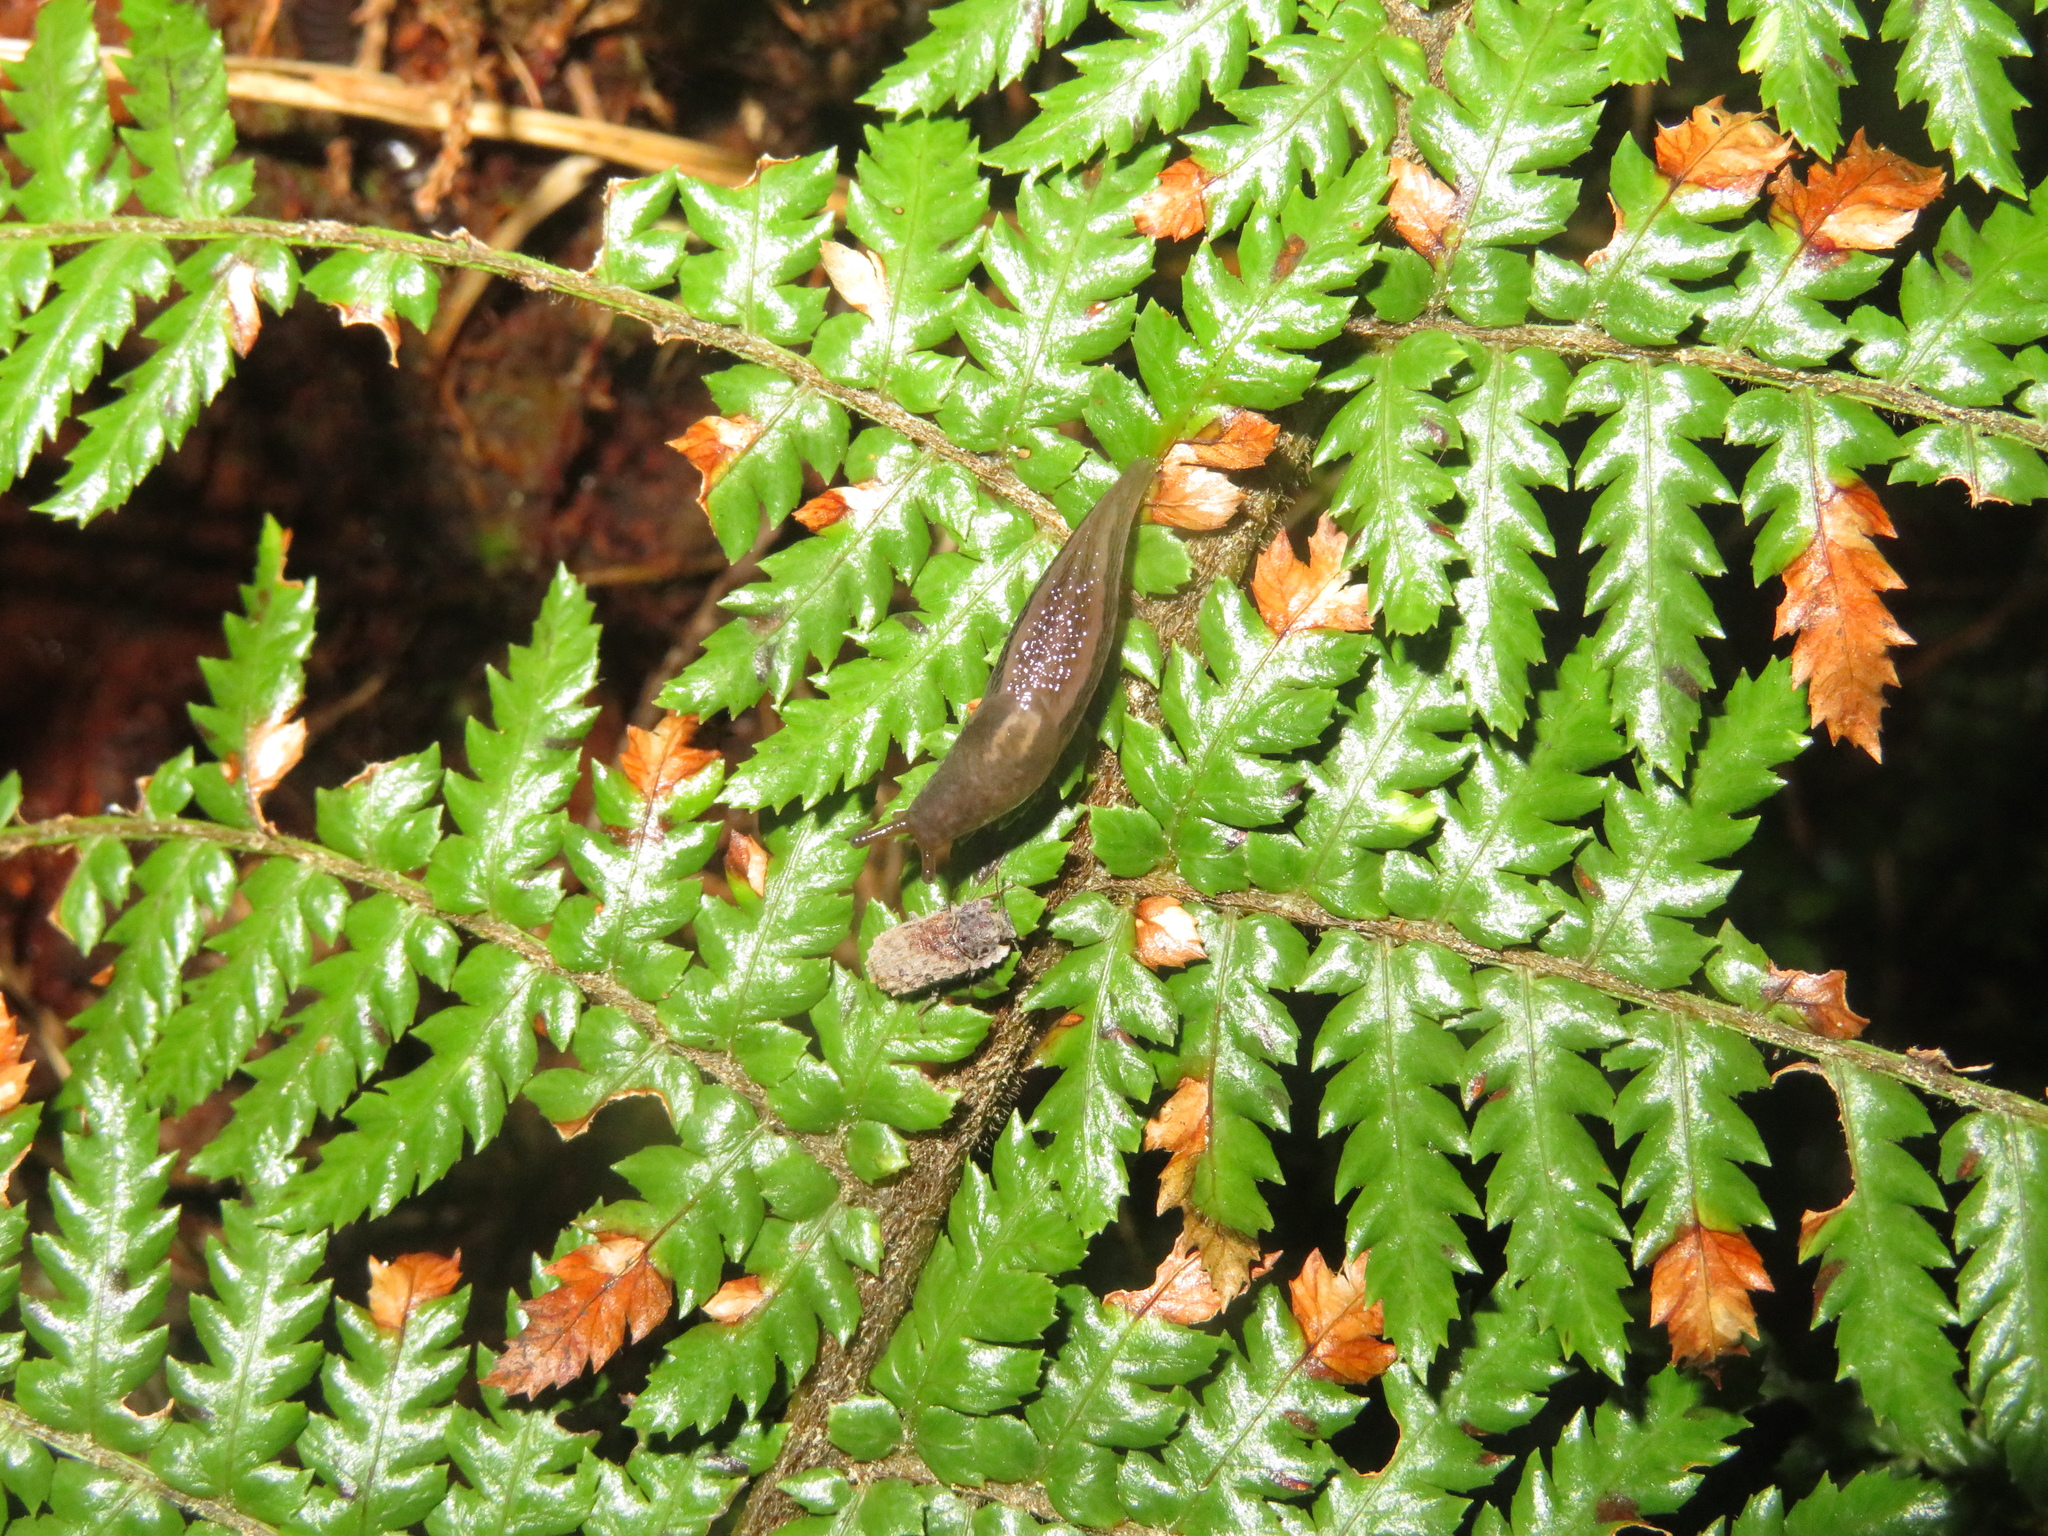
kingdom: Animalia
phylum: Mollusca
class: Gastropoda
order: Stylommatophora
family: Limacidae
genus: Limax
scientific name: Limax maximus
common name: Great grey slug
